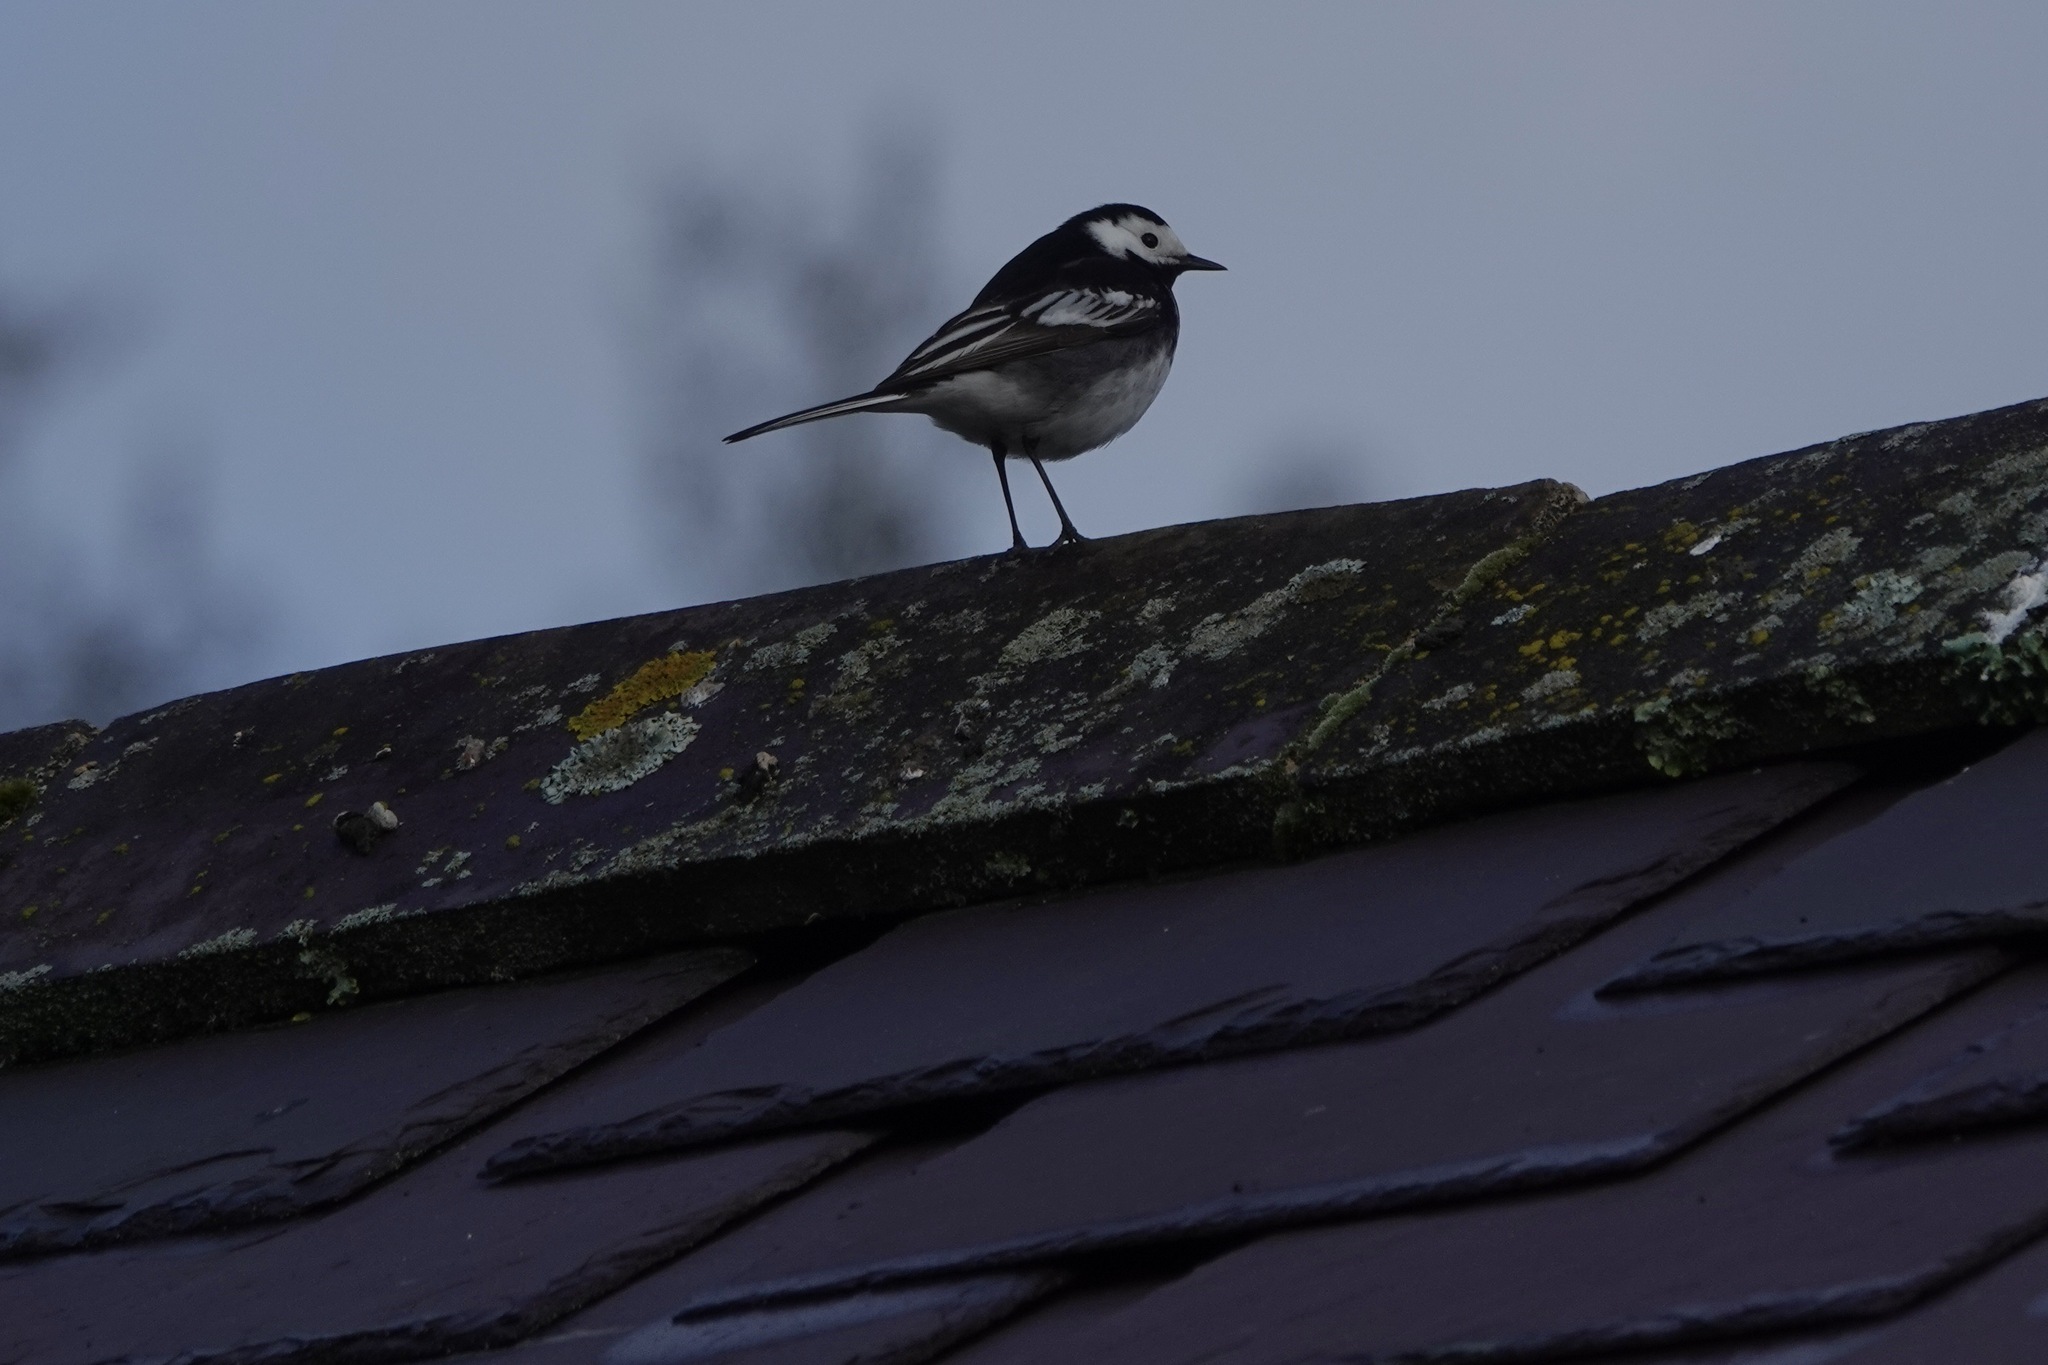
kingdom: Animalia
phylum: Chordata
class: Aves
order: Passeriformes
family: Motacillidae
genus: Motacilla
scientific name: Motacilla alba
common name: White wagtail
